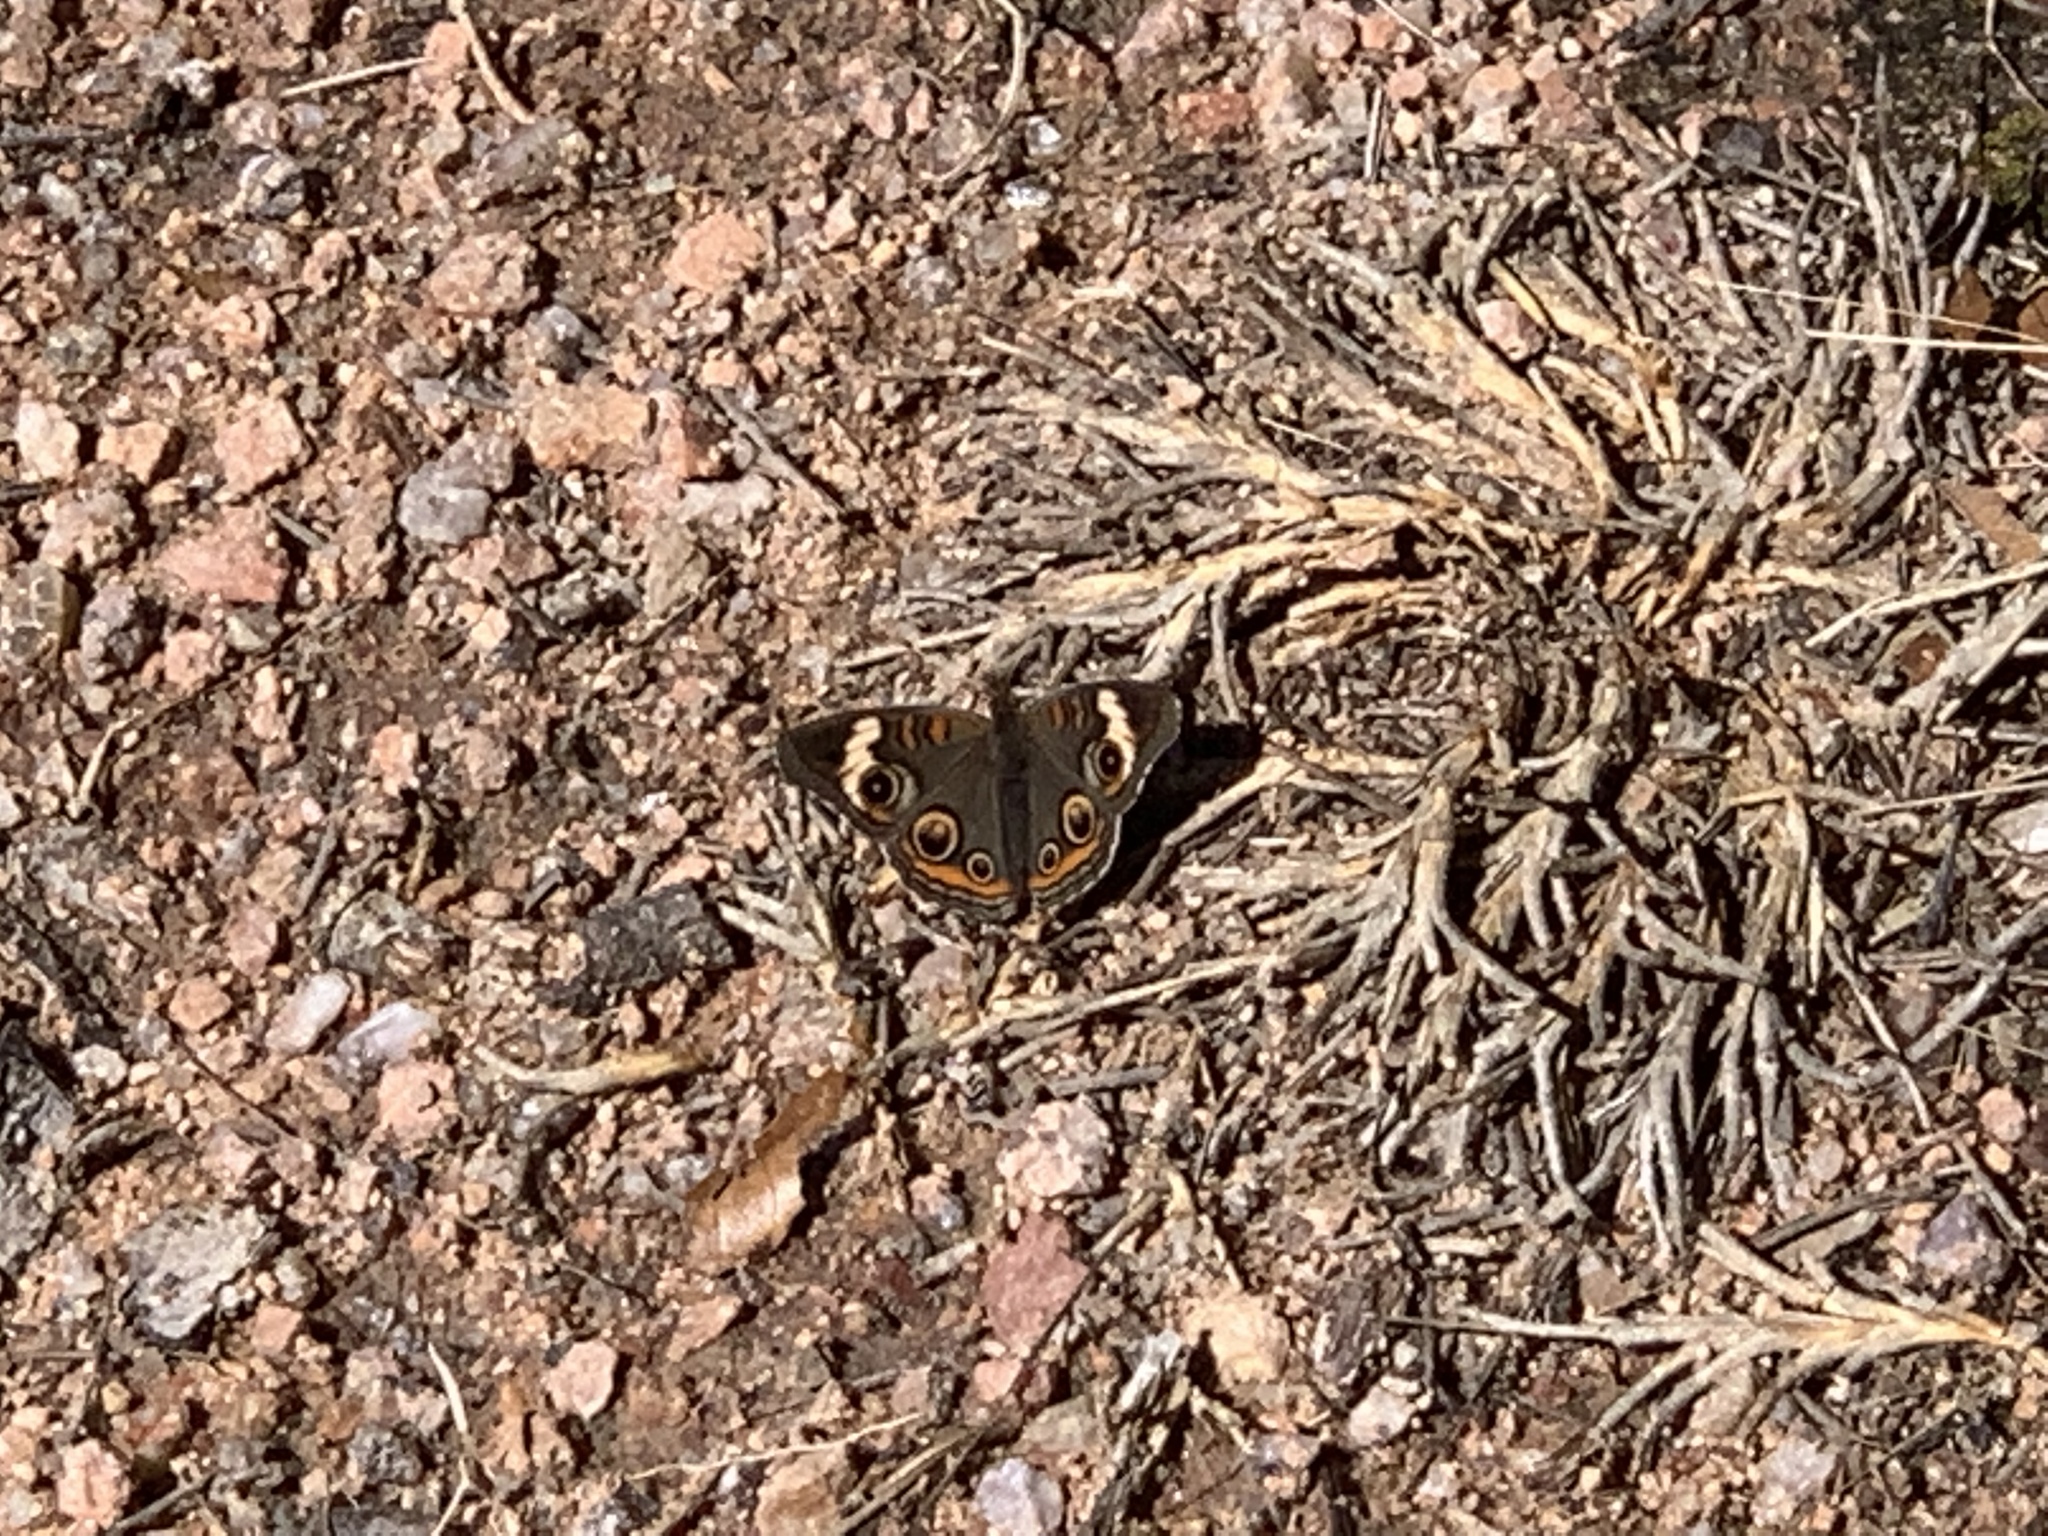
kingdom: Animalia
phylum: Arthropoda
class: Insecta
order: Lepidoptera
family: Nymphalidae
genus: Junonia
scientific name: Junonia coenia
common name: Common buckeye
